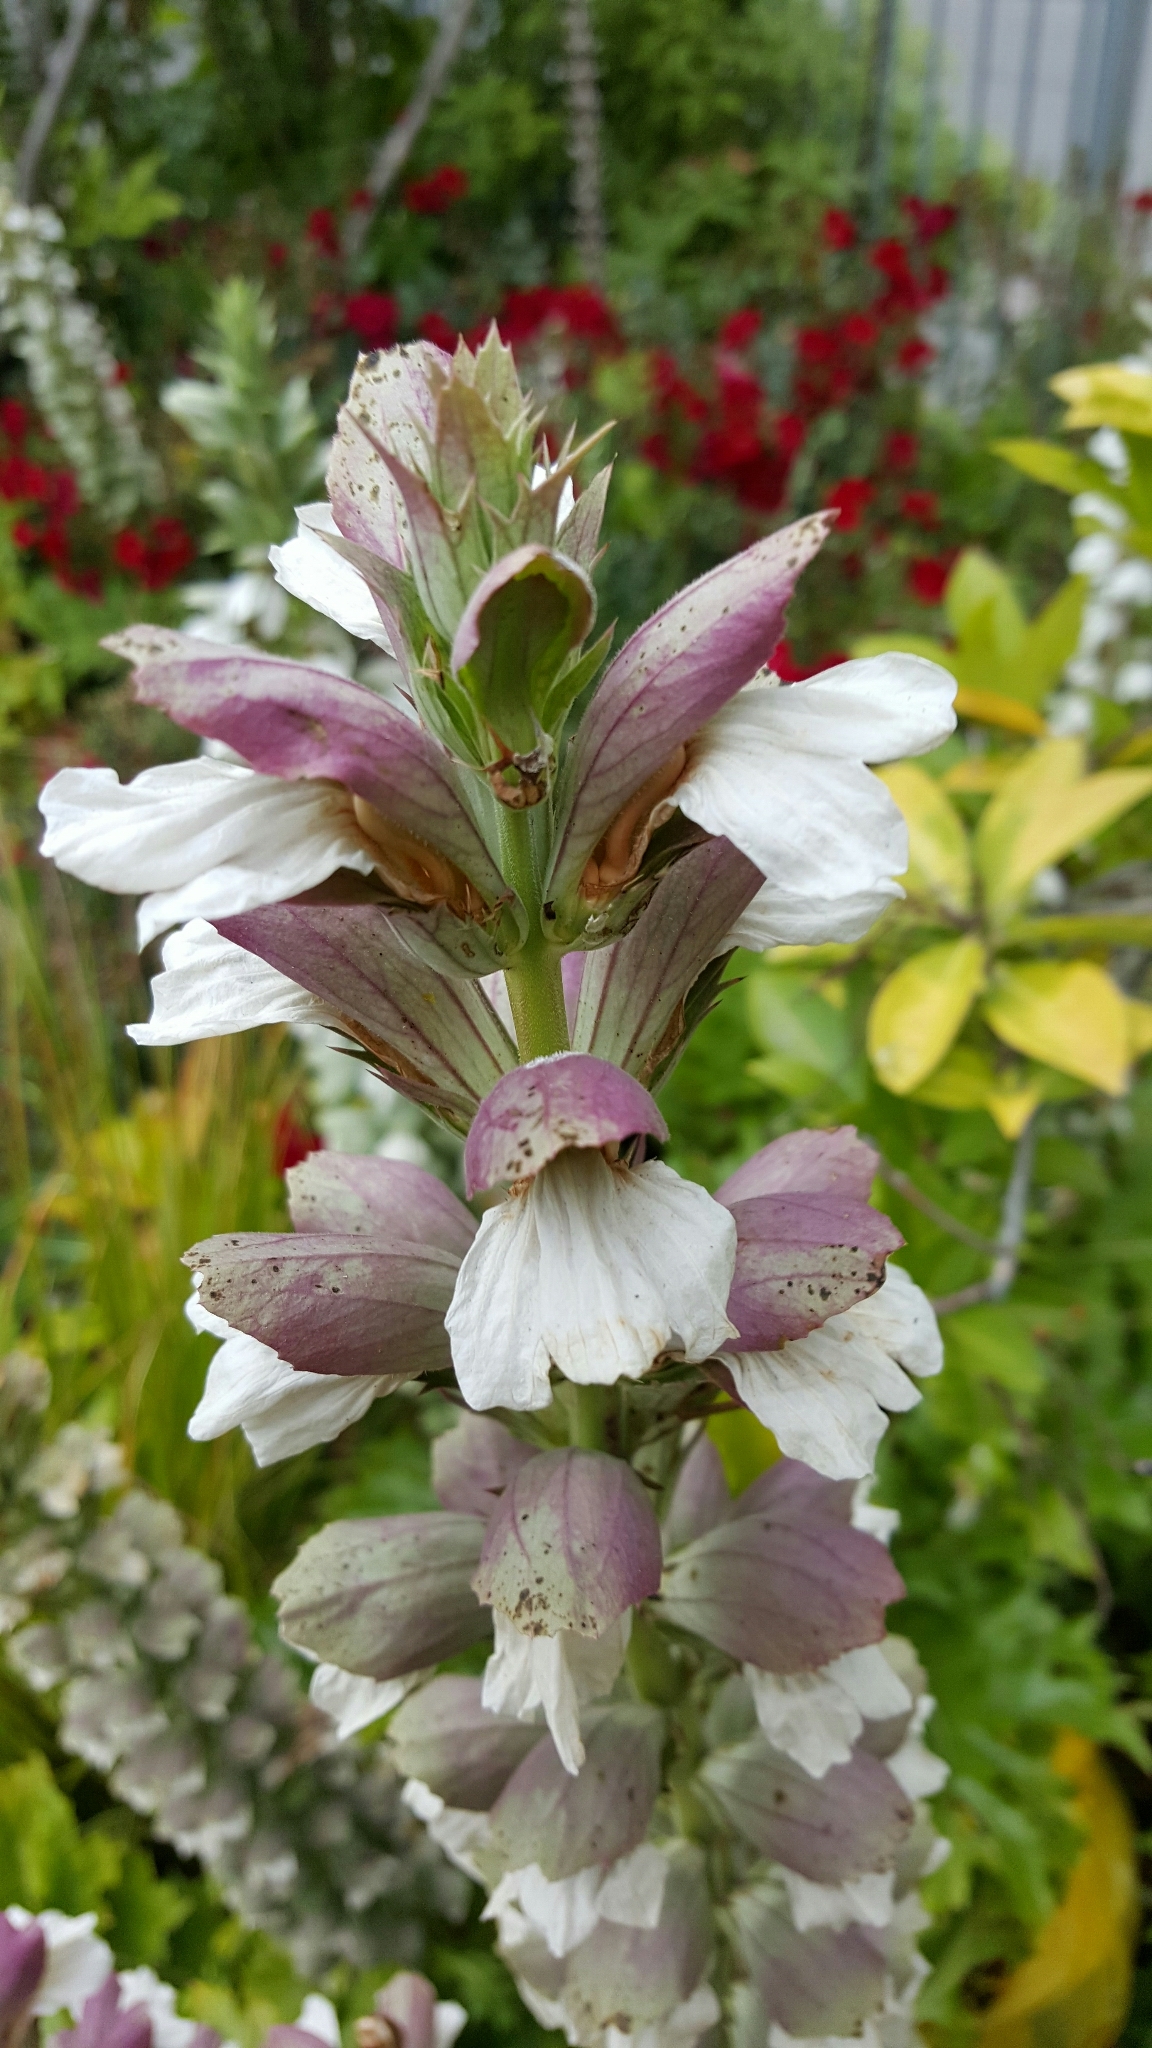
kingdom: Plantae
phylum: Tracheophyta
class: Magnoliopsida
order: Lamiales
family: Acanthaceae
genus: Acanthus
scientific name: Acanthus mollis
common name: Bear's-breech
